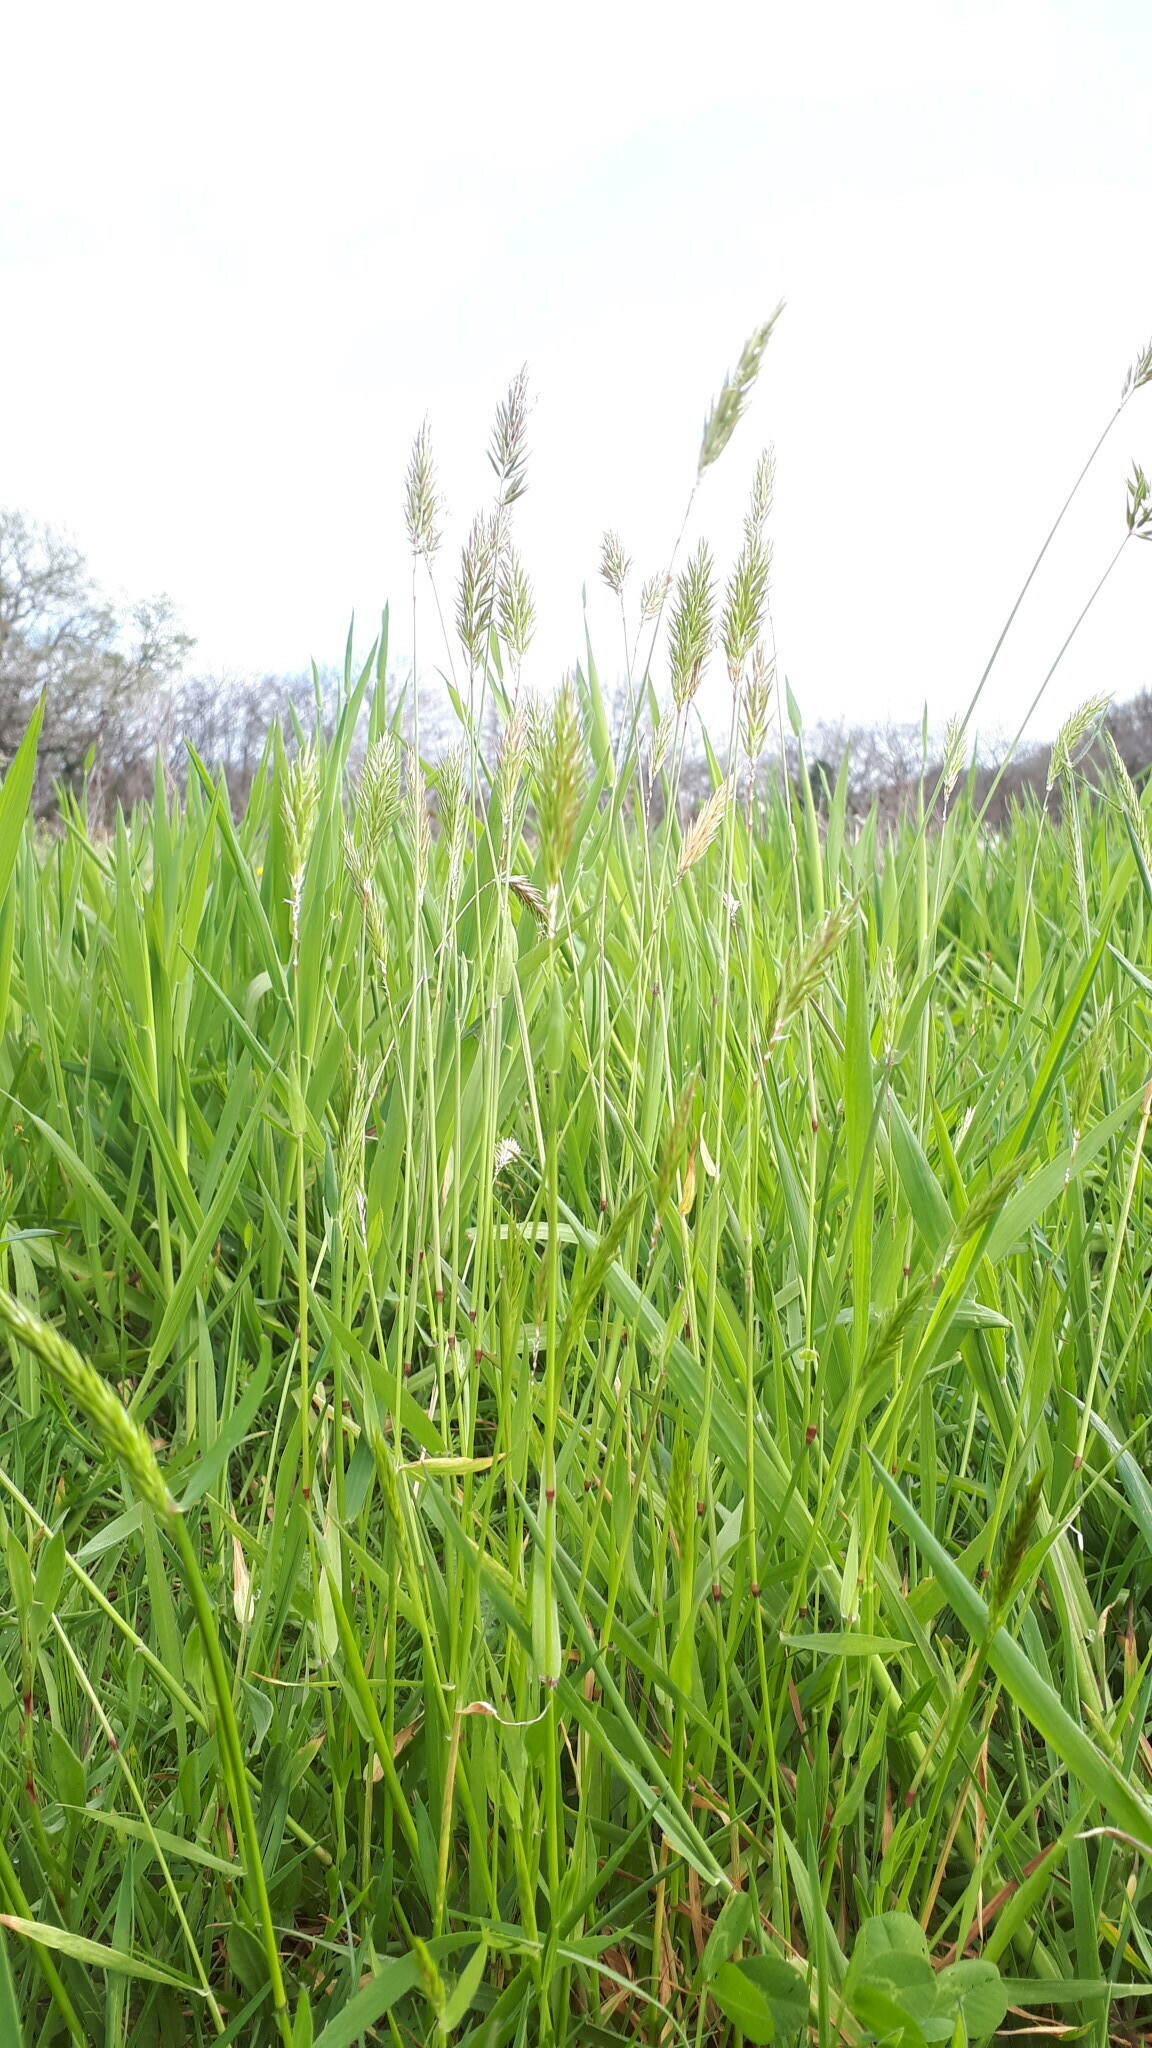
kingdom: Plantae
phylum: Tracheophyta
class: Liliopsida
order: Poales
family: Poaceae
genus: Anthoxanthum
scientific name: Anthoxanthum odoratum
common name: Sweet vernalgrass
